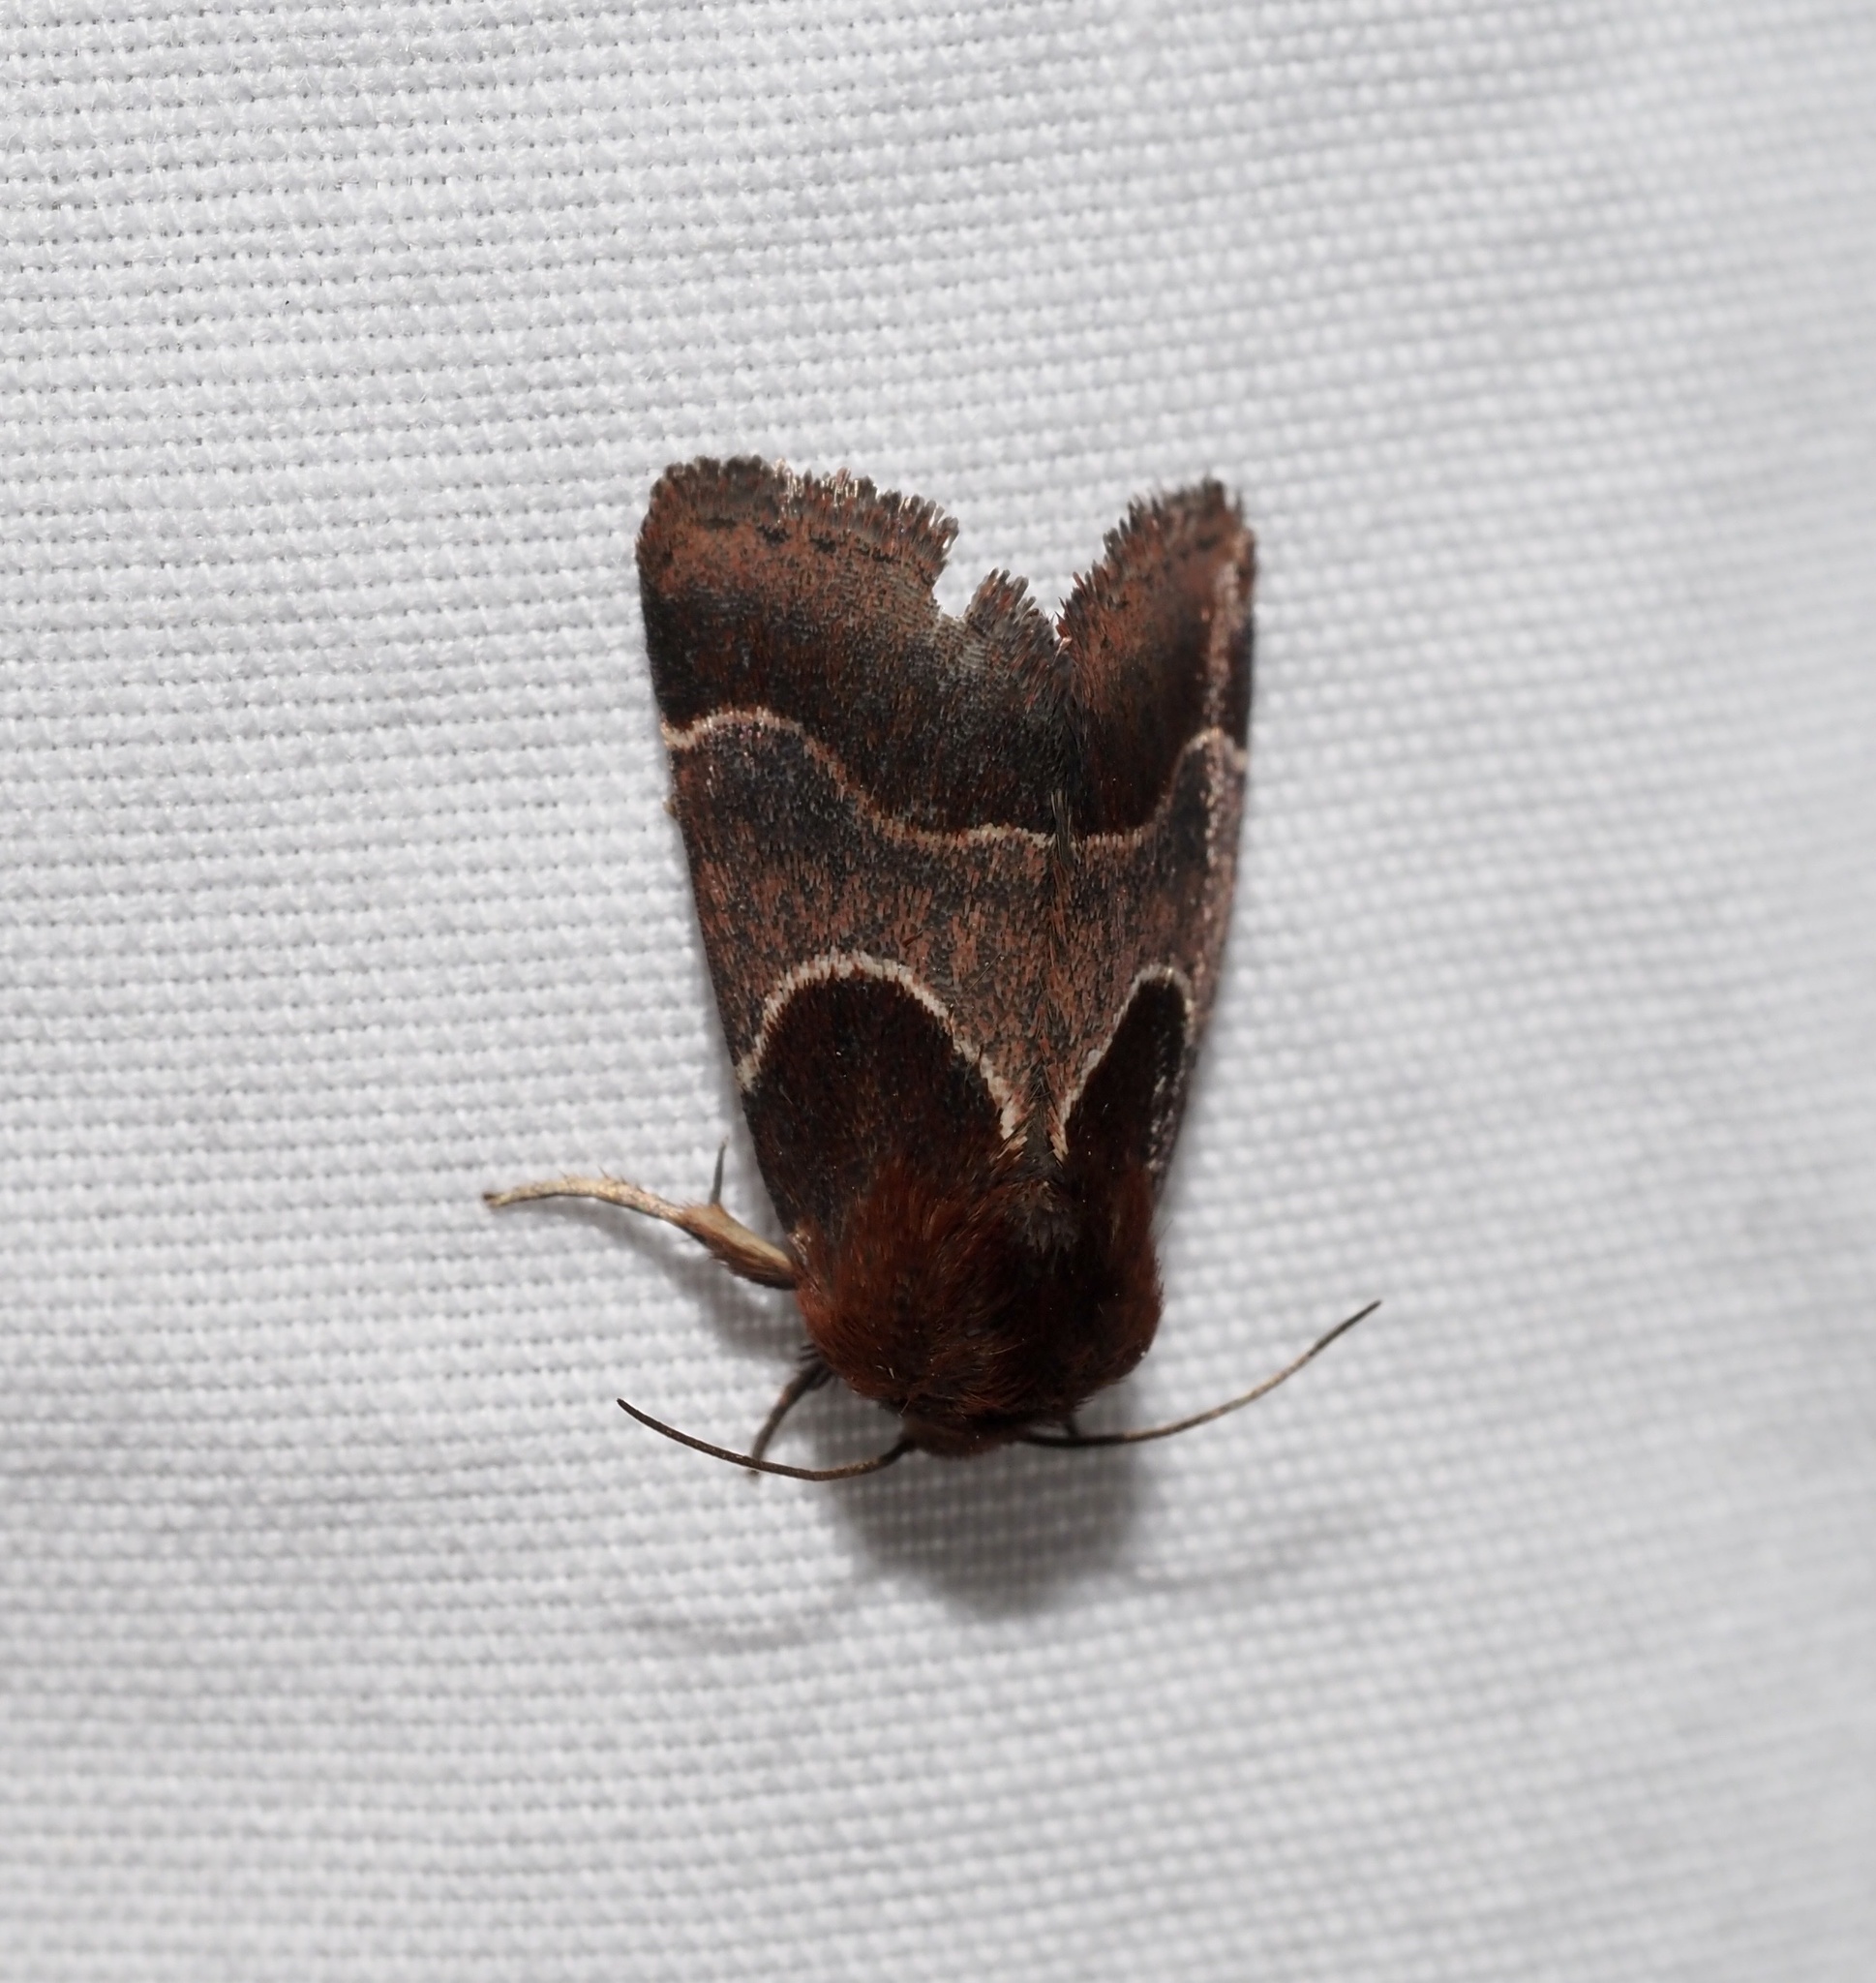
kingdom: Animalia
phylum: Arthropoda
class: Insecta
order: Lepidoptera
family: Noctuidae
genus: Schinia
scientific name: Schinia arcigera
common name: Arcigera flower moth
